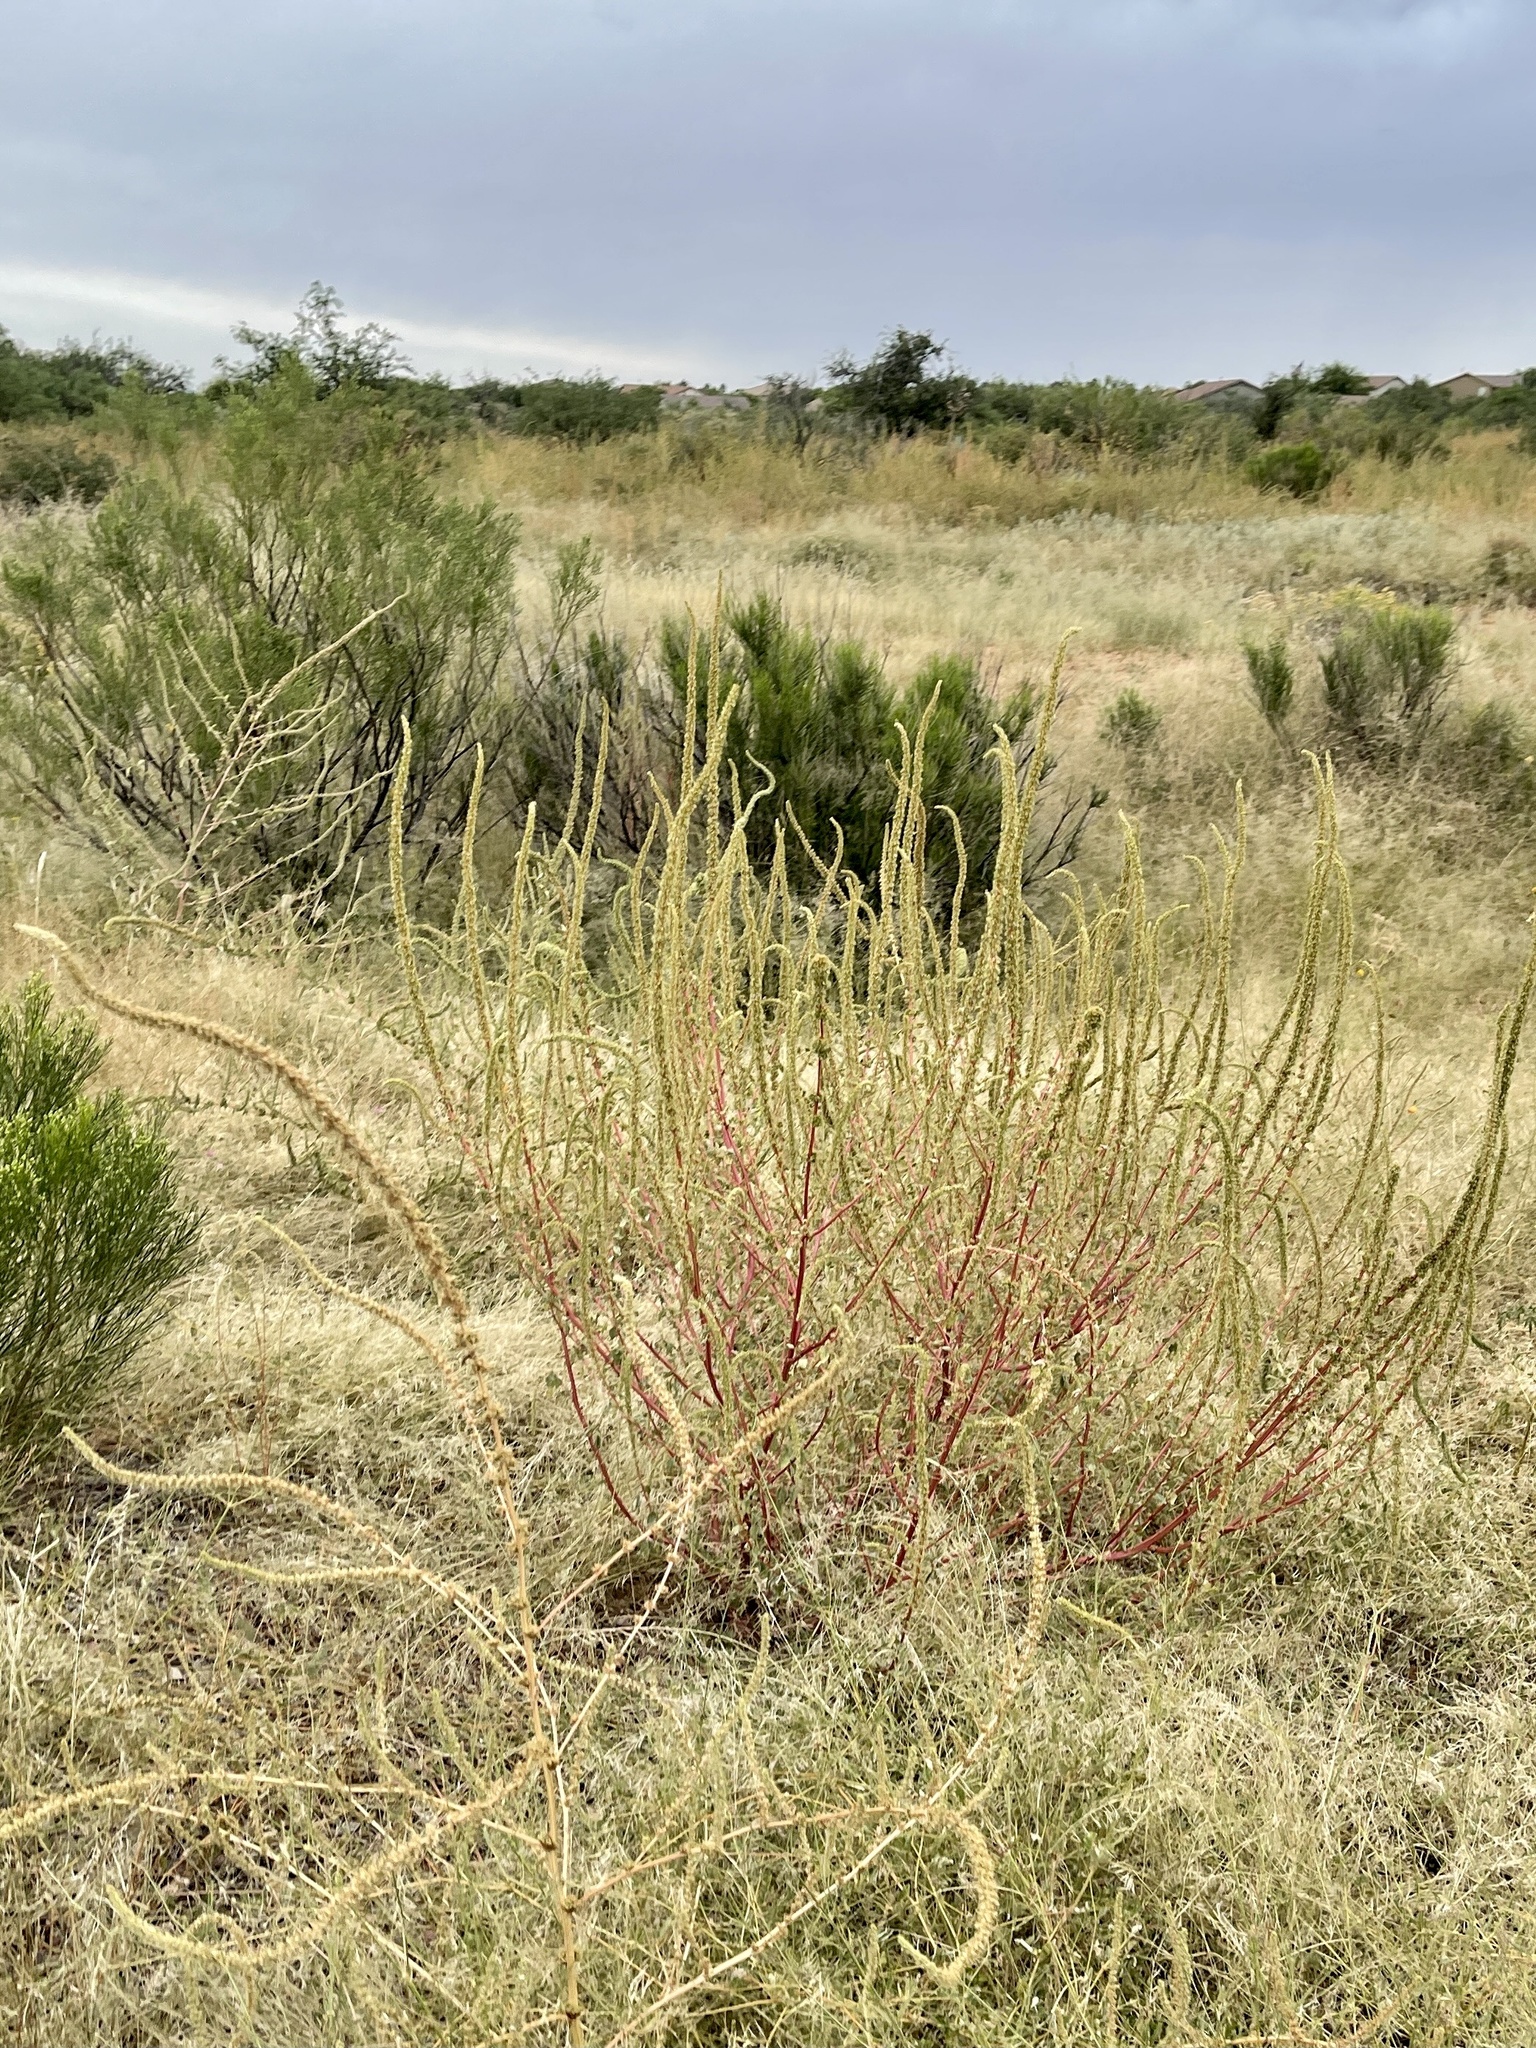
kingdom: Plantae
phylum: Tracheophyta
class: Magnoliopsida
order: Caryophyllales
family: Amaranthaceae
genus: Amaranthus
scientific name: Amaranthus palmeri
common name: Dioecious amaranth
